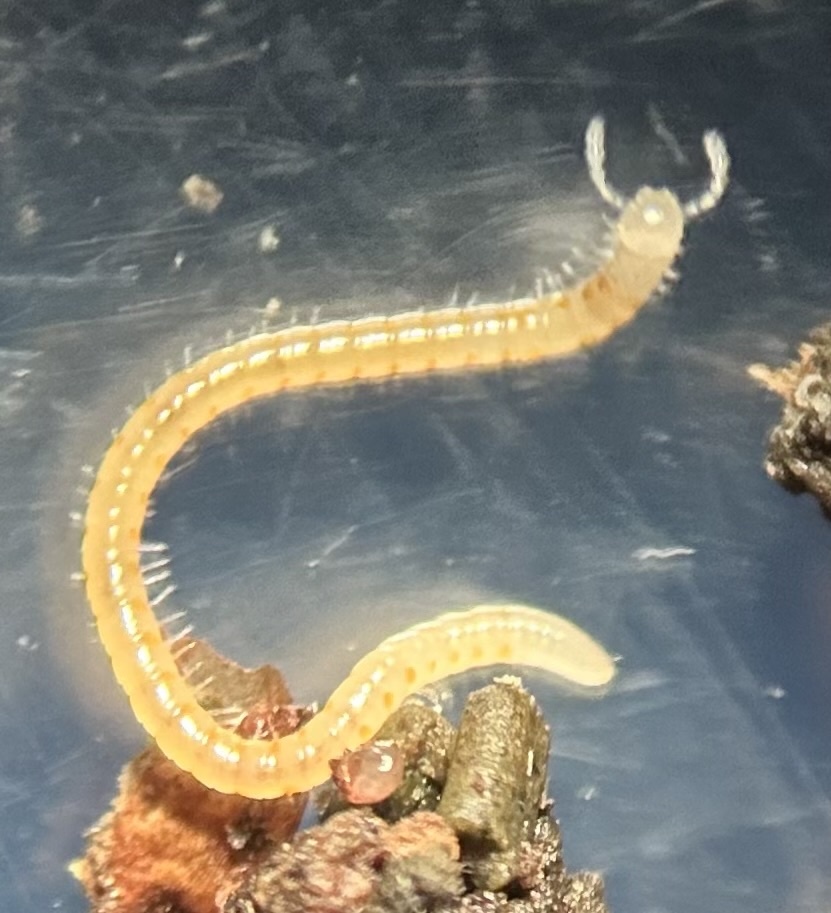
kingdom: Animalia
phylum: Arthropoda
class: Diplopoda
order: Julida
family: Blaniulidae
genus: Boreoiulus
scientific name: Boreoiulus tenuis
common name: Slender snake millipede
